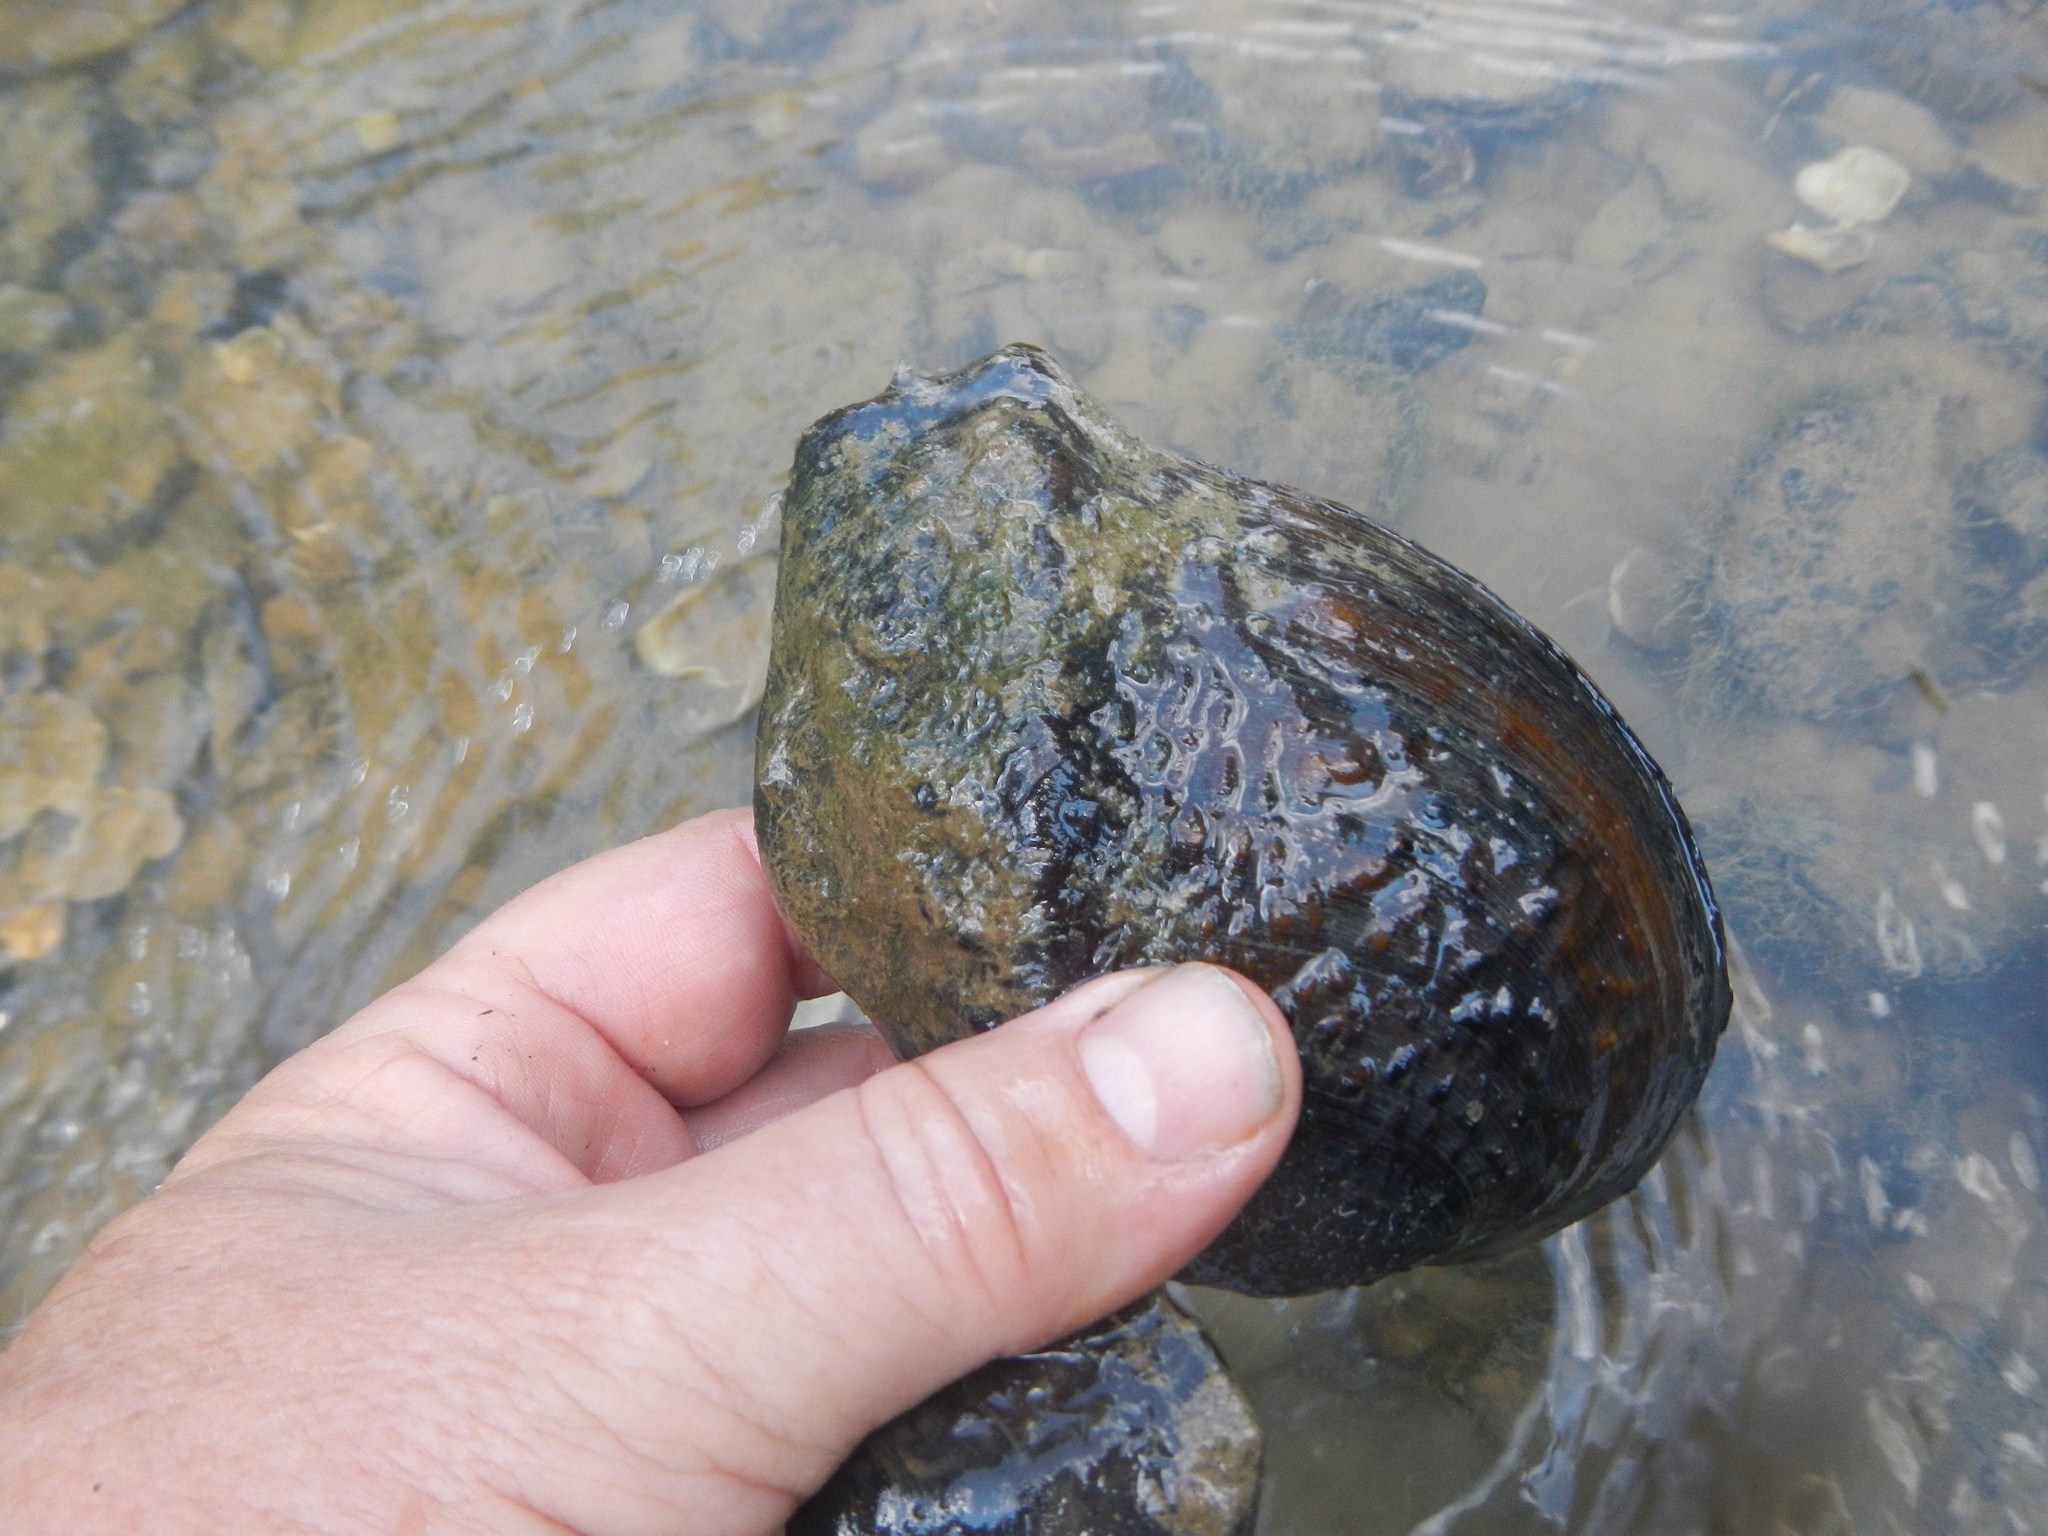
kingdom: Animalia
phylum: Mollusca
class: Bivalvia
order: Unionida
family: Unionidae
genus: Tritogonia
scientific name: Tritogonia verrucosa
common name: Pistolgrip
